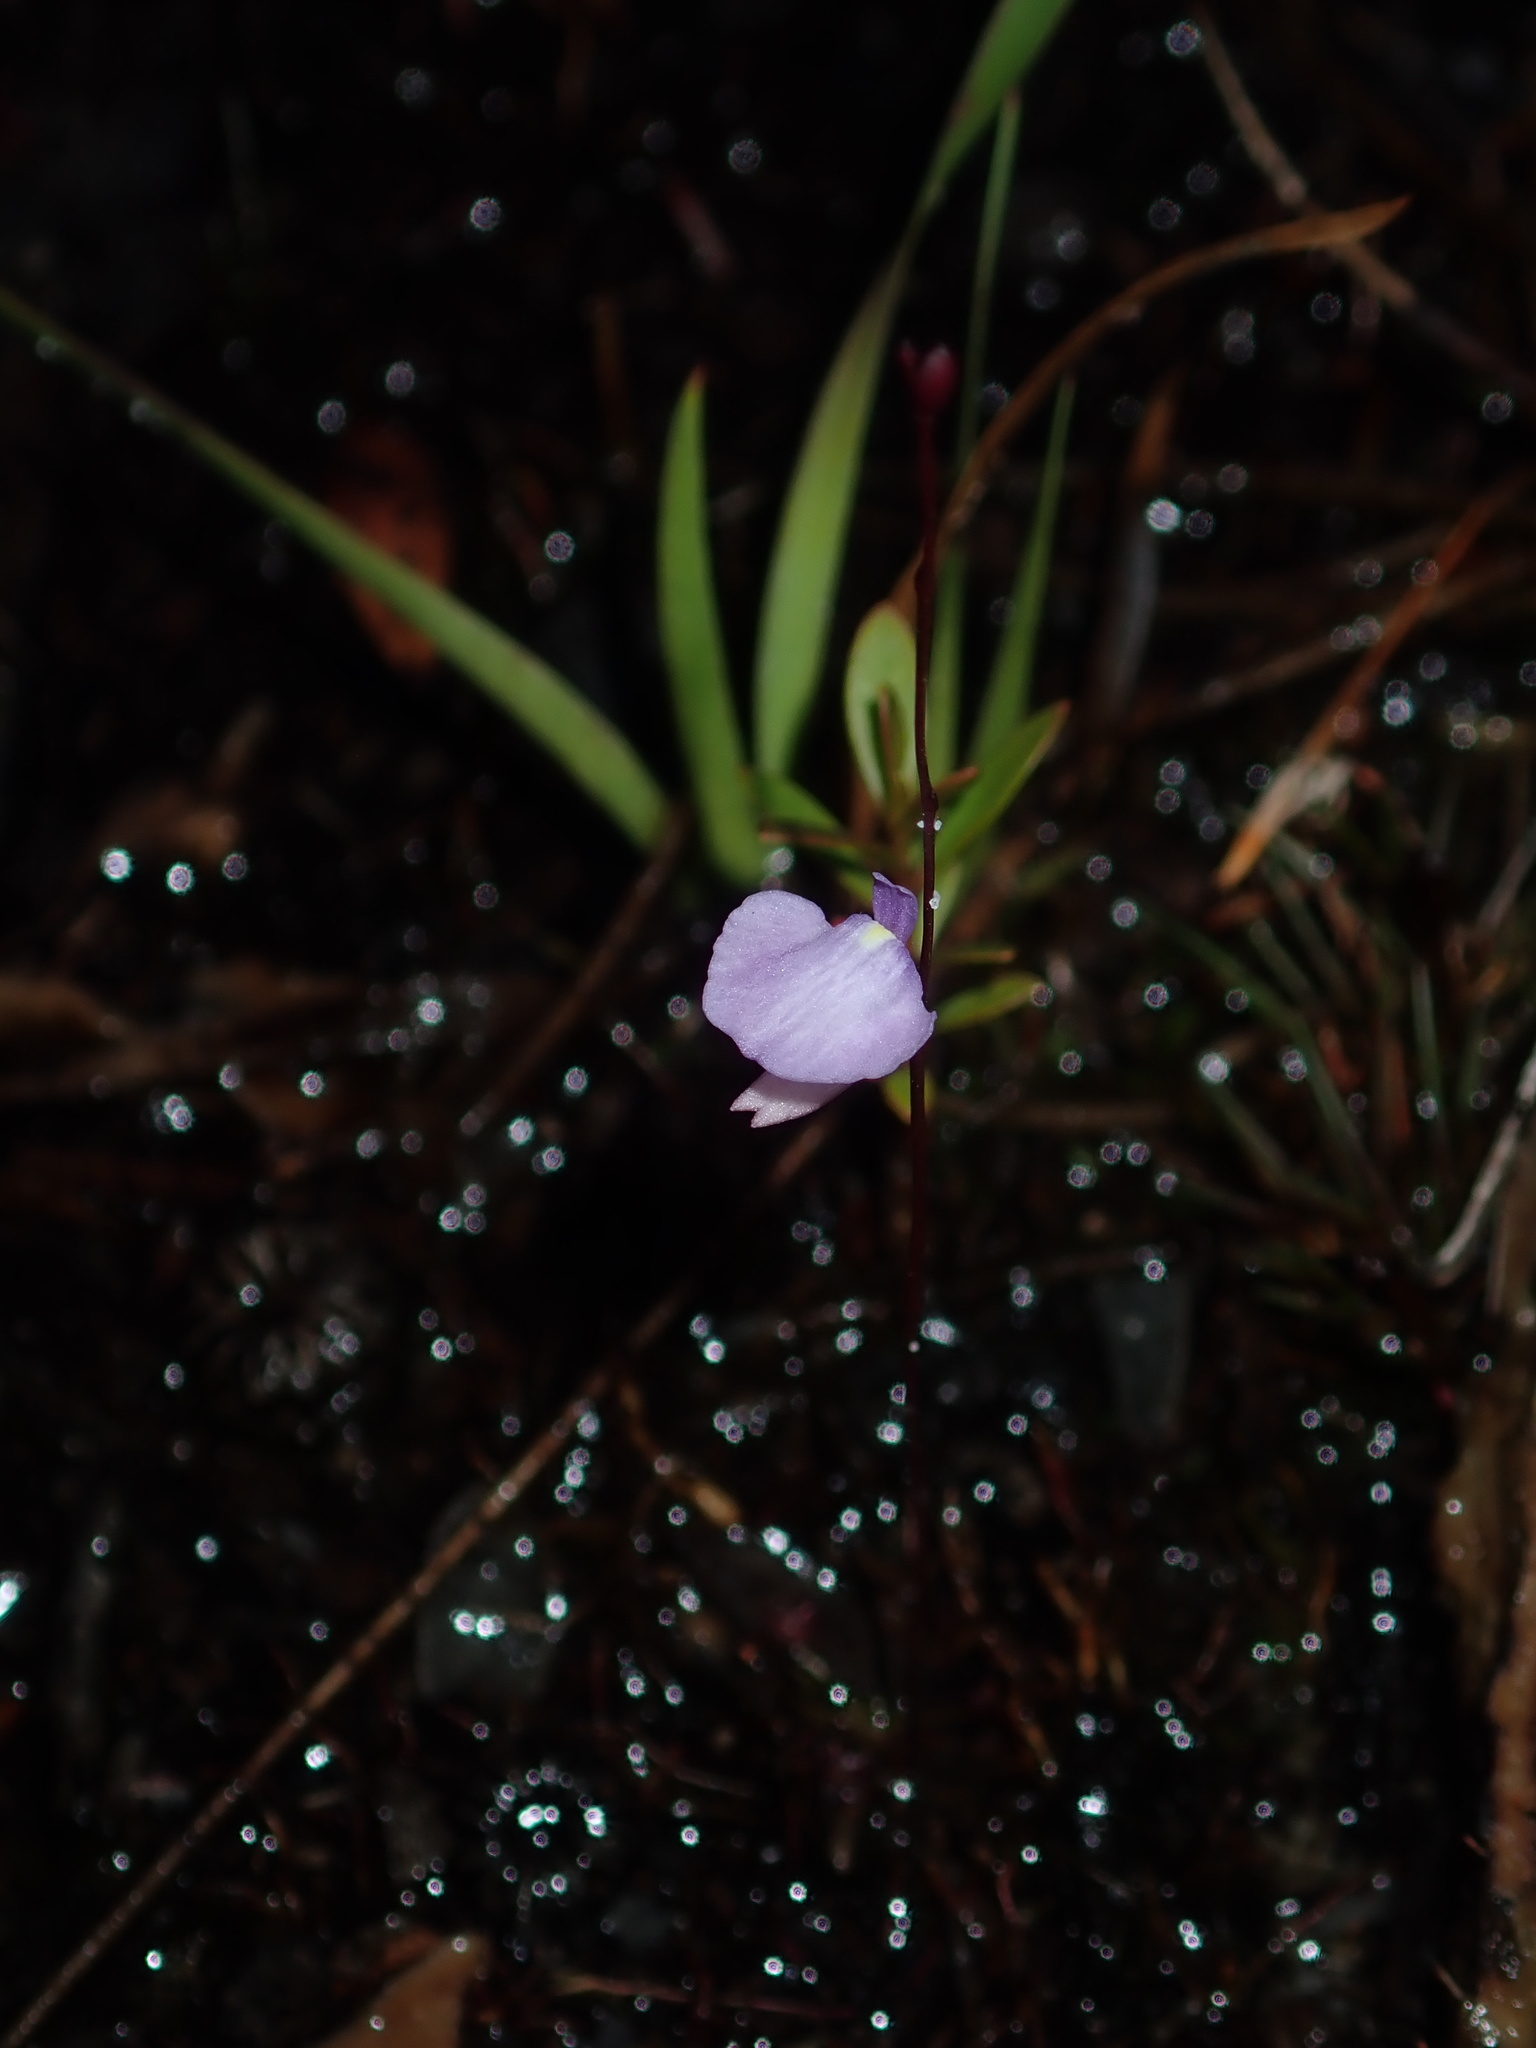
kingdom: Plantae
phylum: Tracheophyta
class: Magnoliopsida
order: Lamiales
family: Lentibulariaceae
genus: Utricularia
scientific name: Utricularia lateriflora
